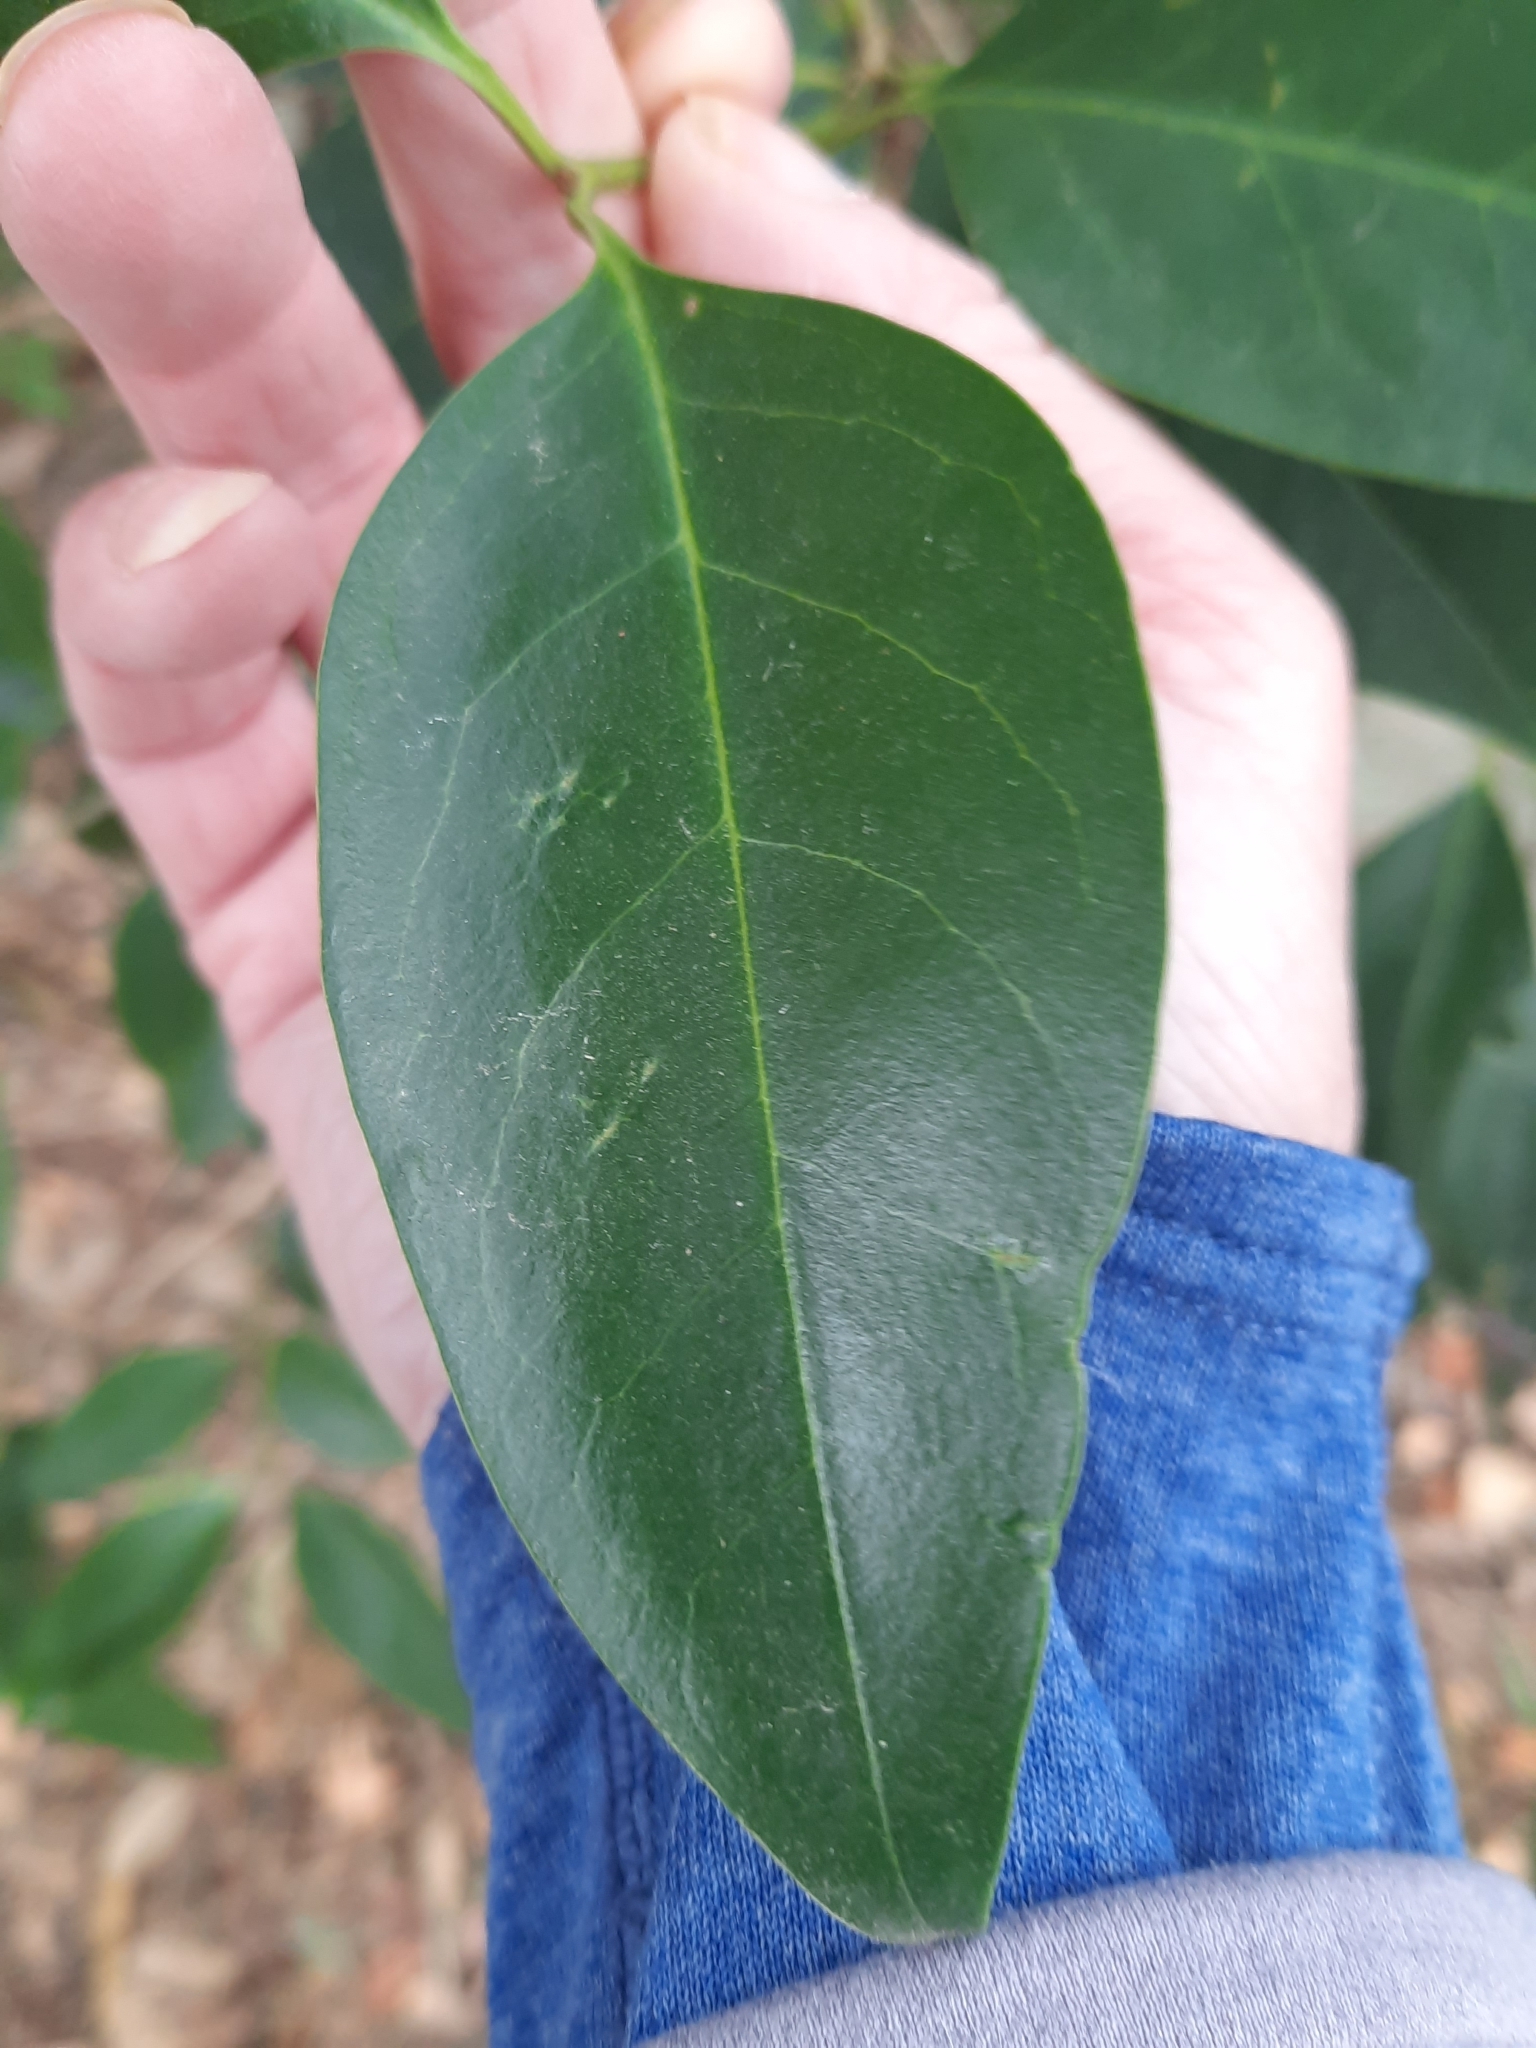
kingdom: Plantae
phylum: Tracheophyta
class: Magnoliopsida
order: Lamiales
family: Oleaceae
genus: Ligustrum
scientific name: Ligustrum lucidum
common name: Glossy privet
